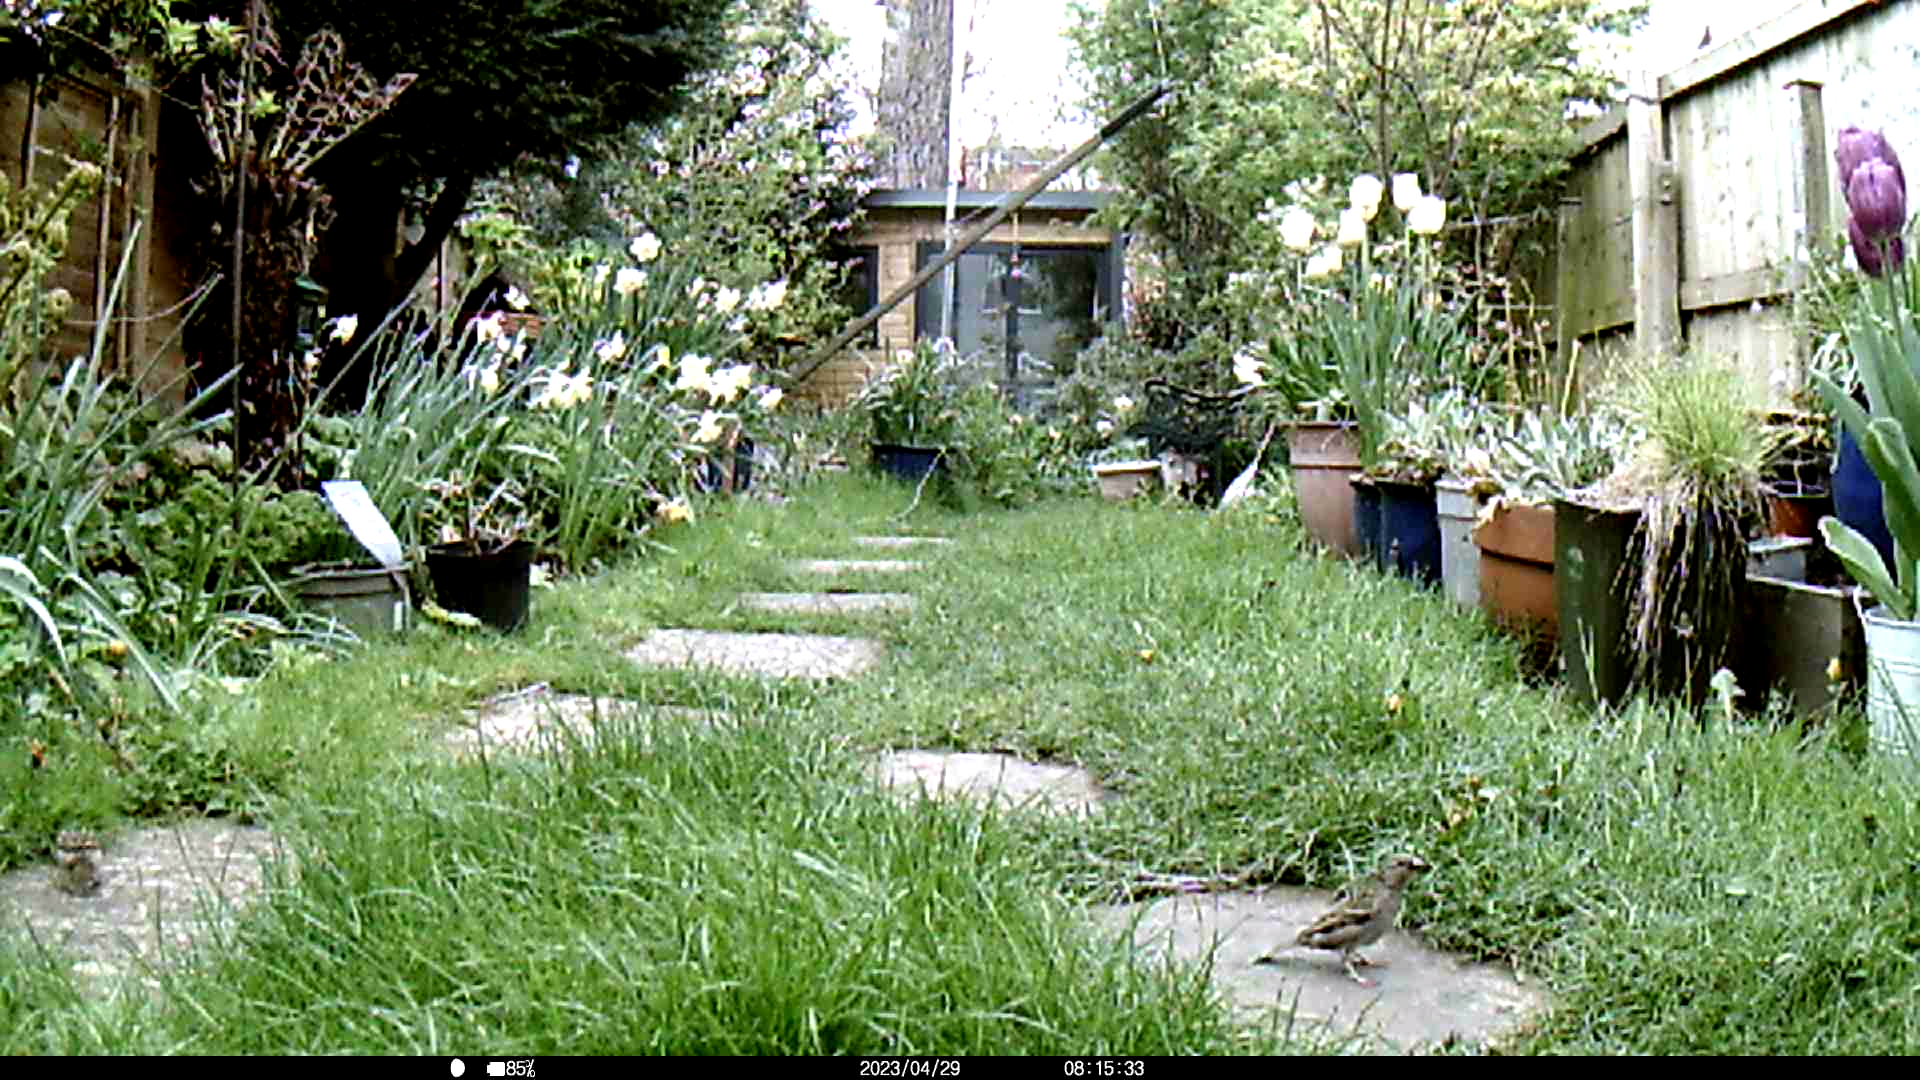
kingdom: Animalia
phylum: Chordata
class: Aves
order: Passeriformes
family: Passeridae
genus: Passer
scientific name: Passer domesticus
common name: House sparrow
